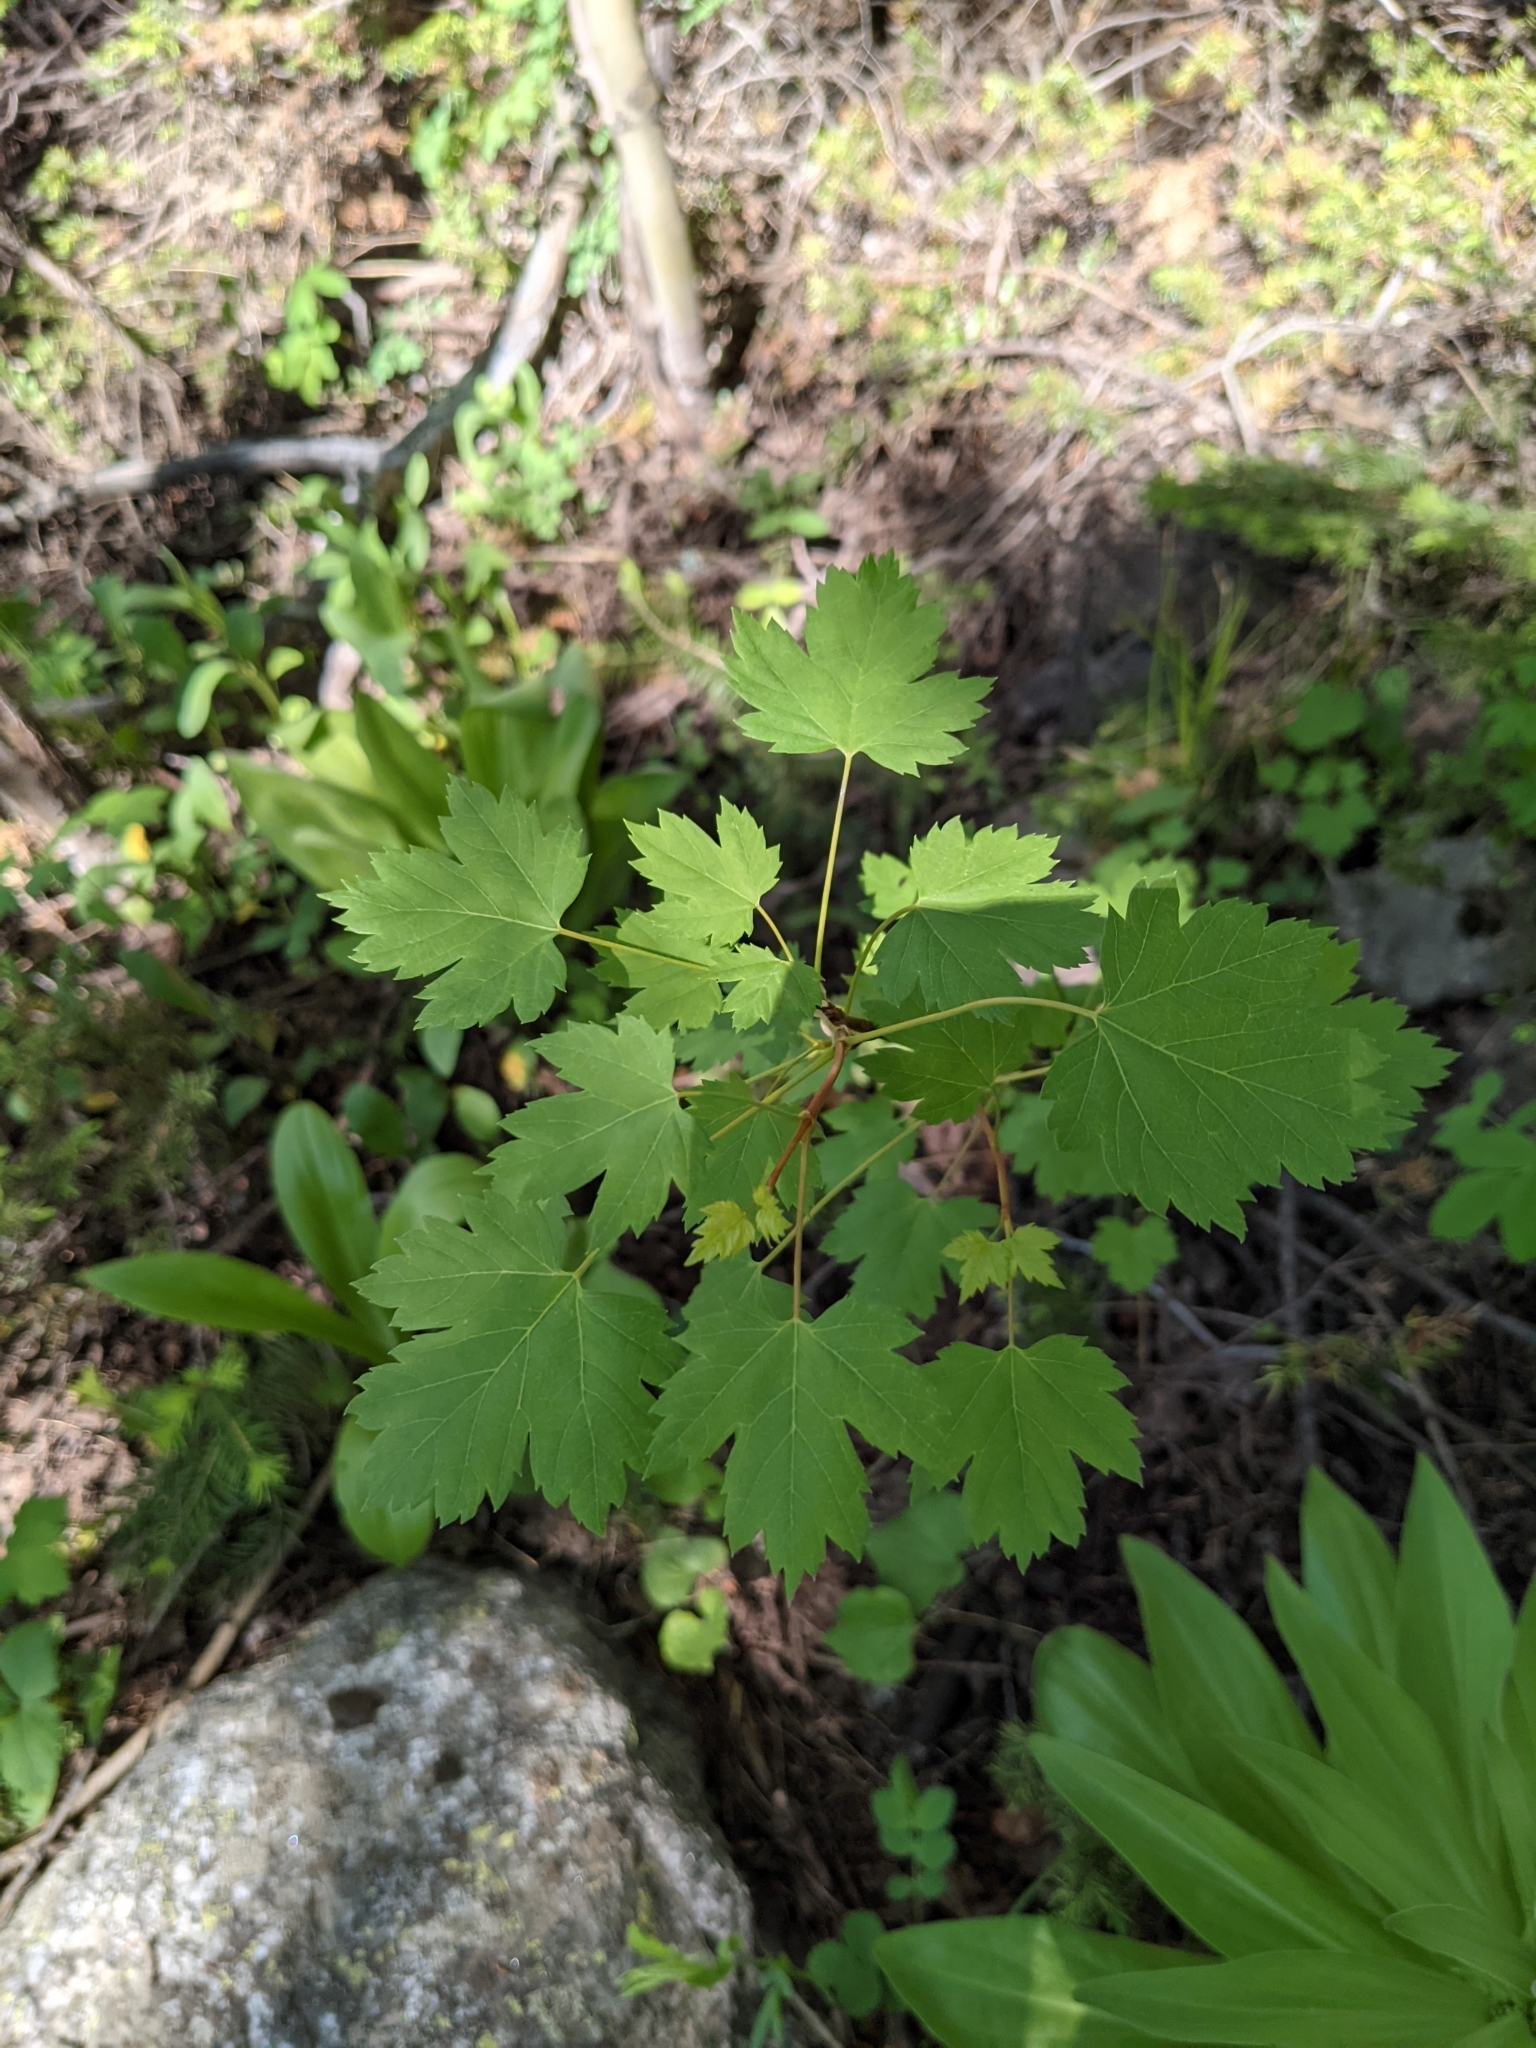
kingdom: Plantae
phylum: Tracheophyta
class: Magnoliopsida
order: Sapindales
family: Sapindaceae
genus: Acer
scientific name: Acer glabrum
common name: Rocky mountain maple
